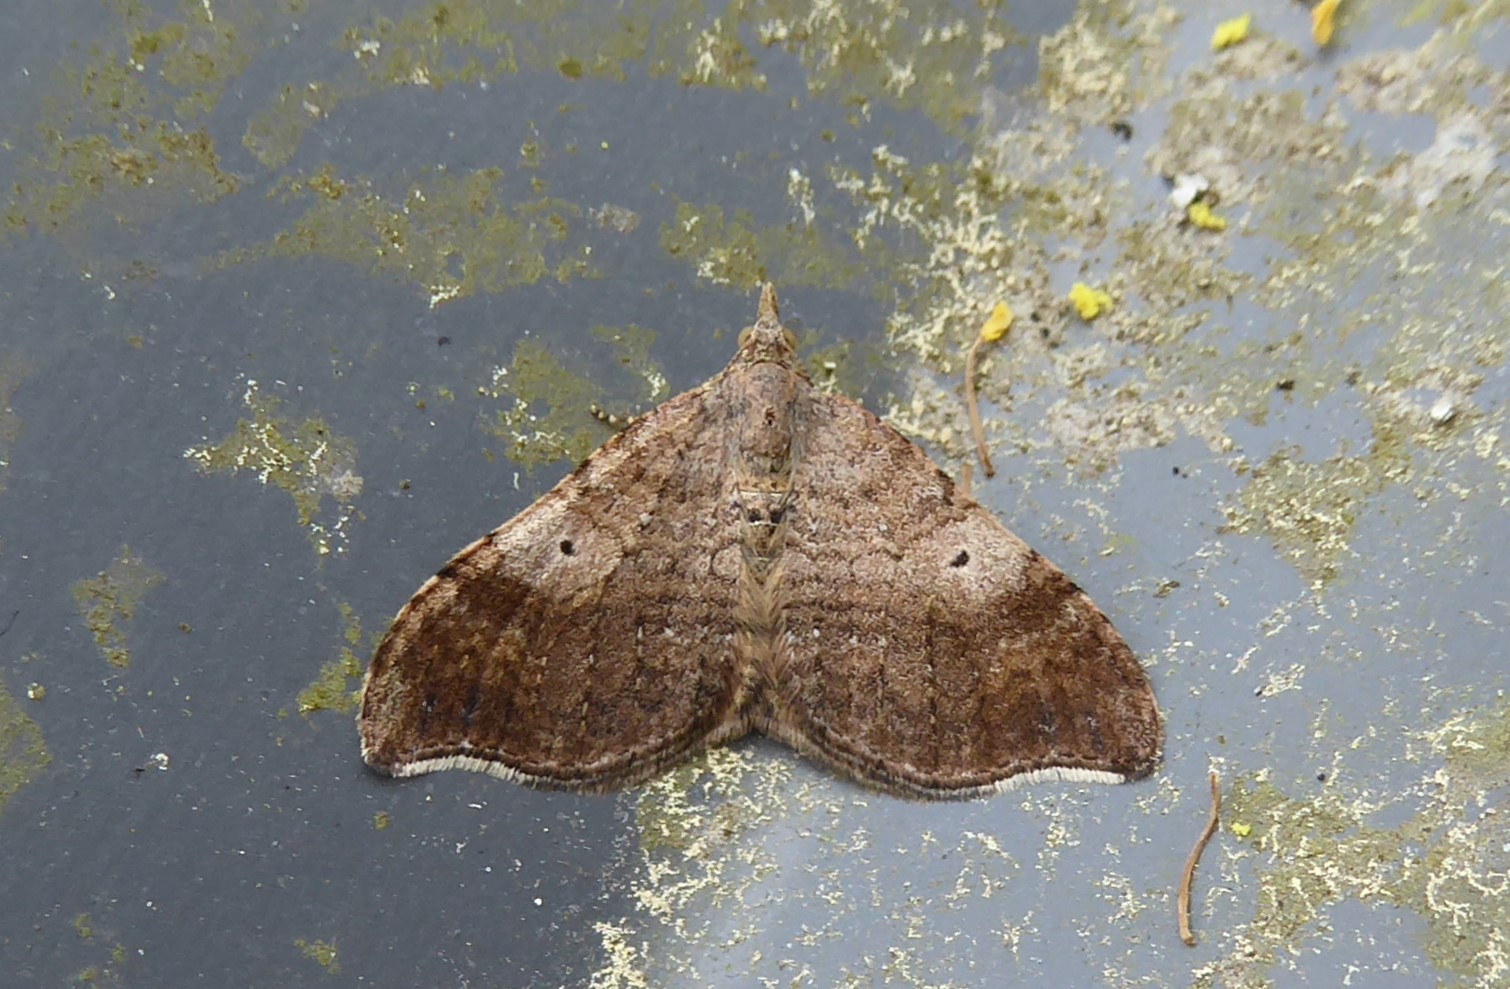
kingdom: Animalia
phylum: Arthropoda
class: Insecta
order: Lepidoptera
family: Geometridae
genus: Homodotis
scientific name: Homodotis megaspilata
